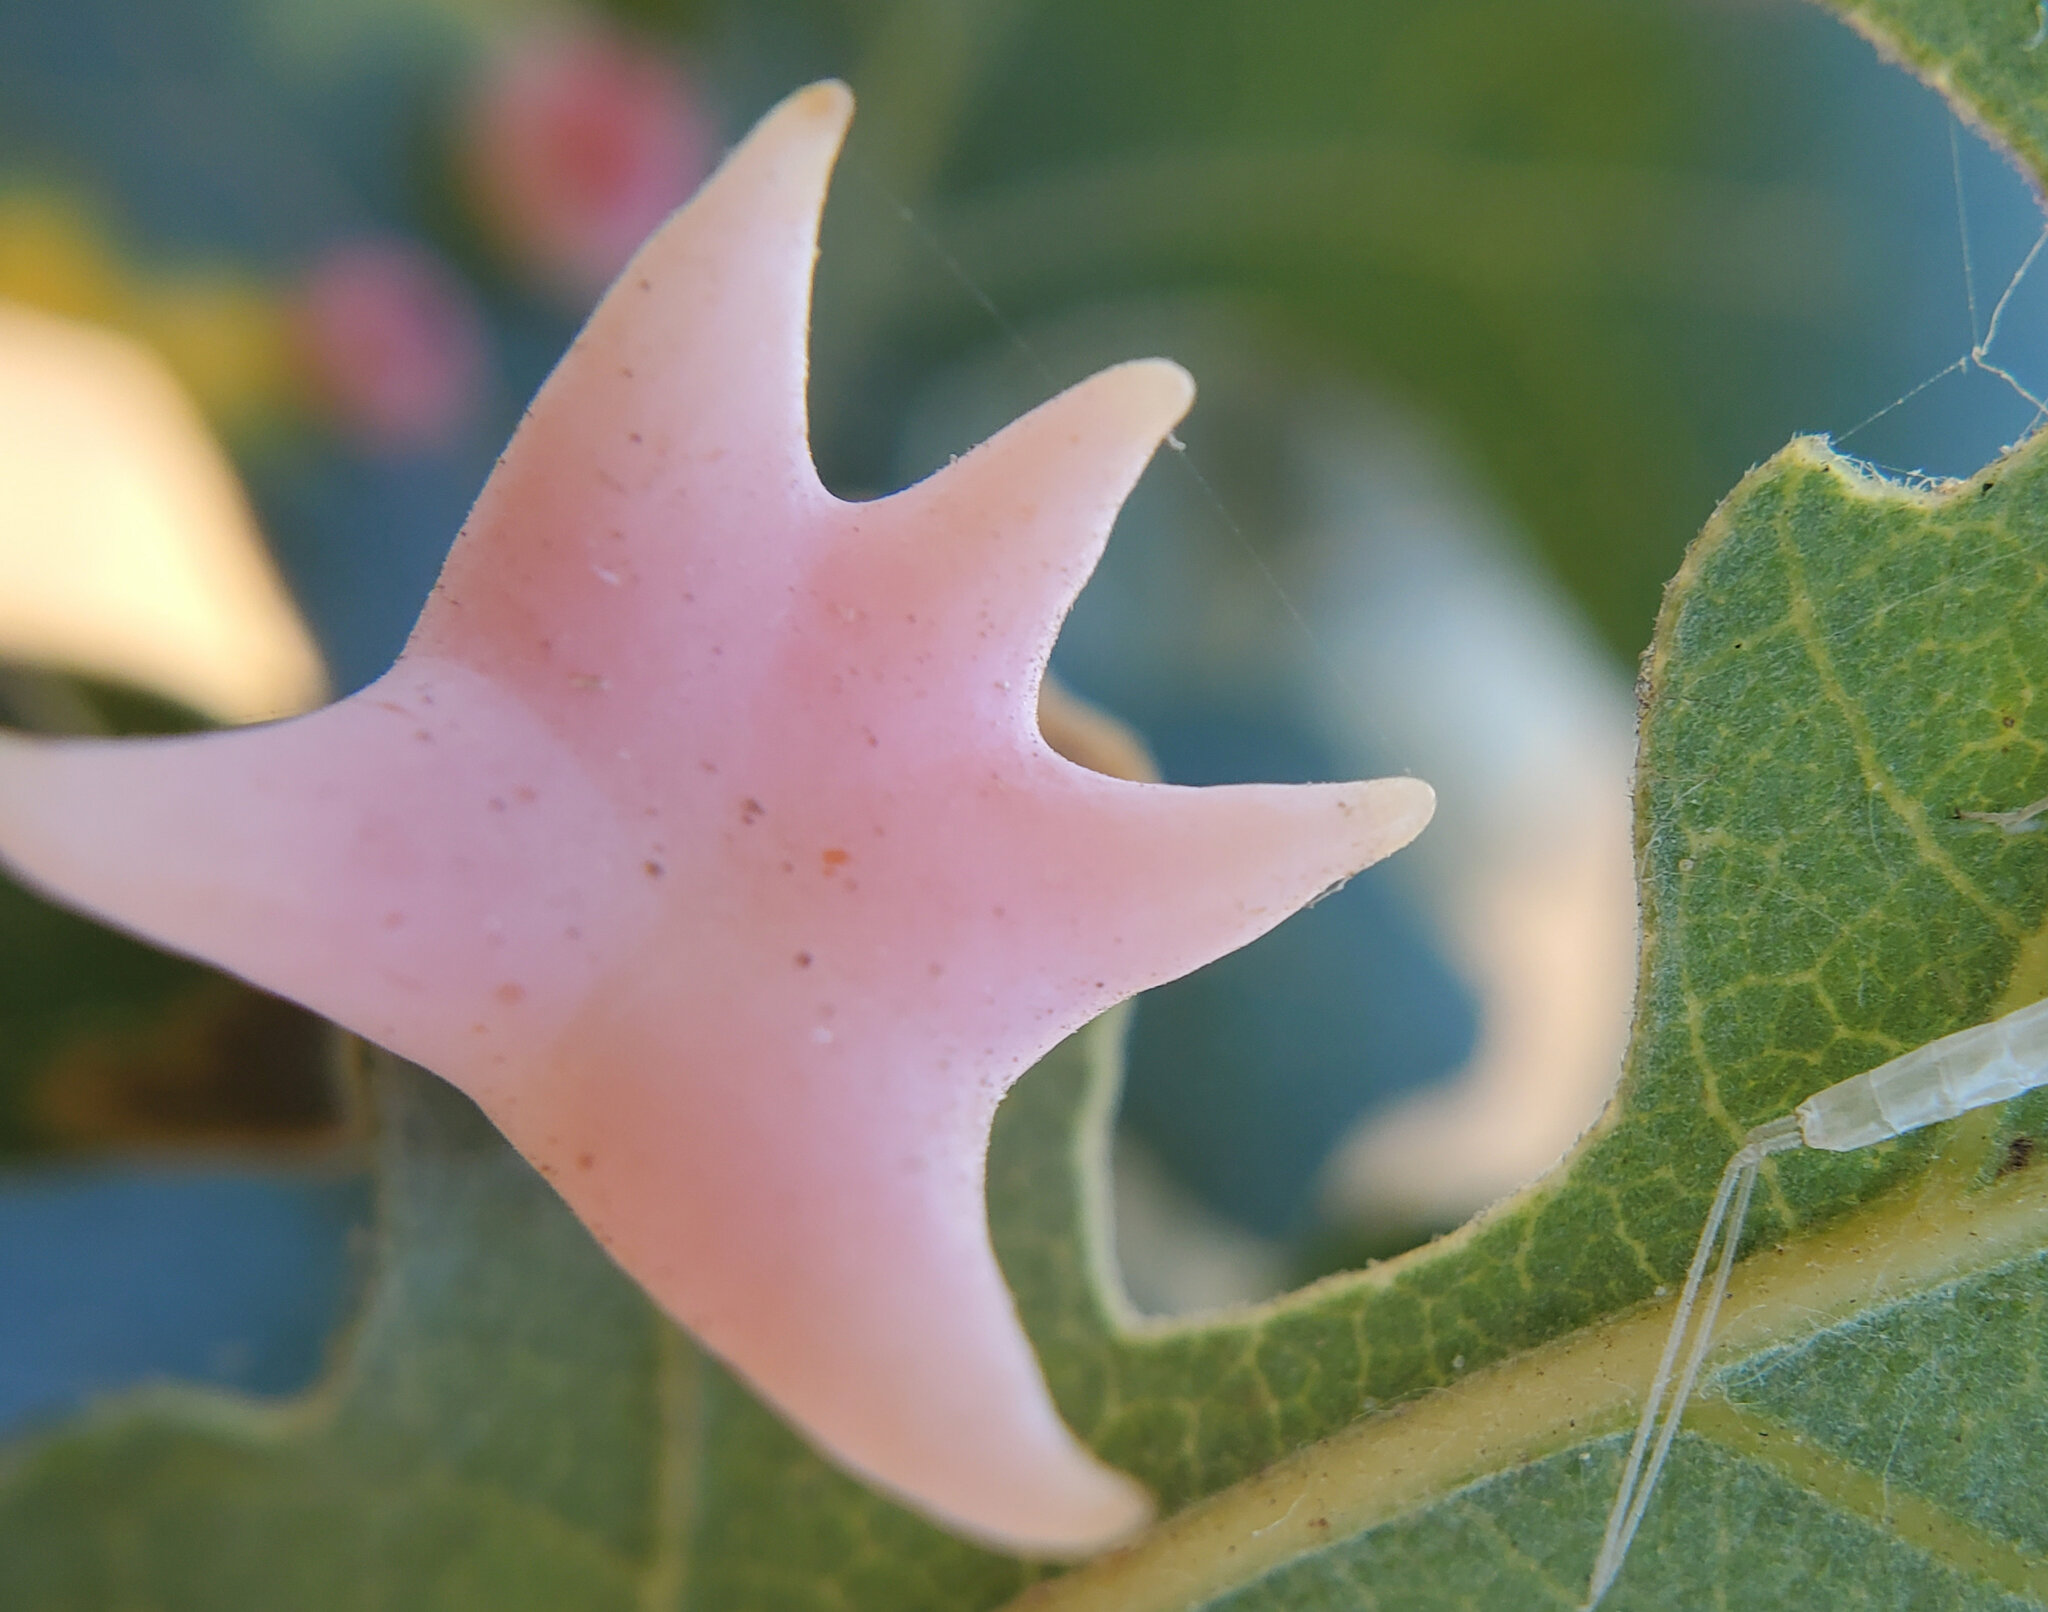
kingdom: Animalia
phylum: Arthropoda
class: Insecta
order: Hymenoptera
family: Cynipidae
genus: Cynips
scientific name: Cynips douglasi
